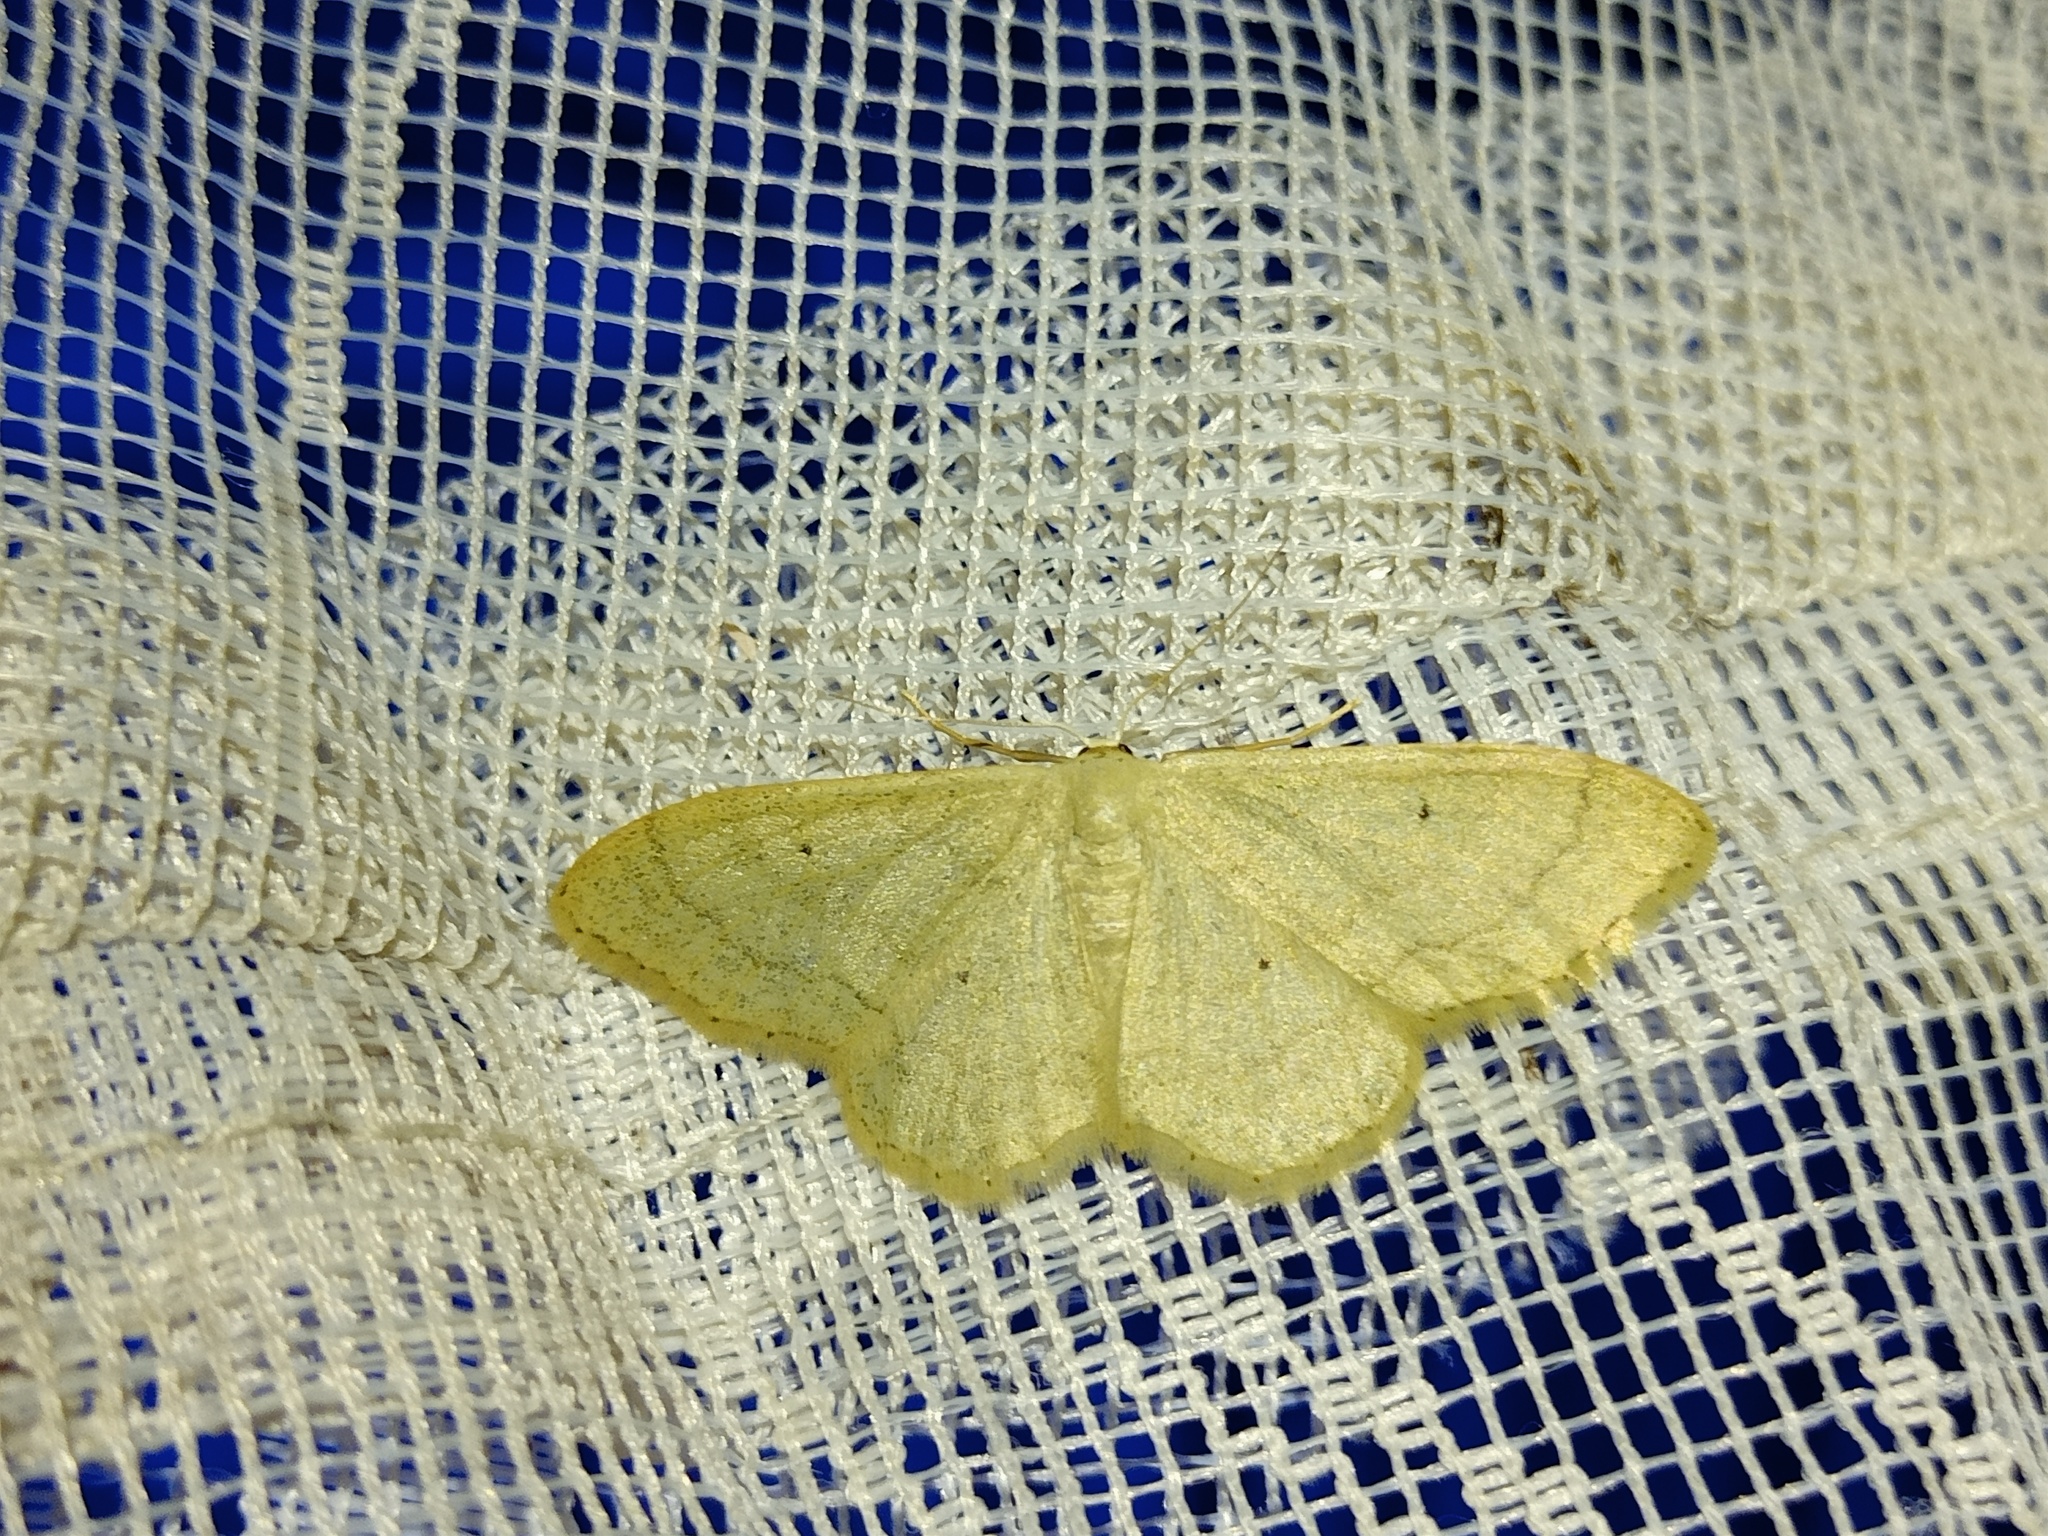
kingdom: Animalia
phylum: Arthropoda
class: Insecta
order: Lepidoptera
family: Geometridae
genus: Idaea
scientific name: Idaea straminata
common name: Plain wave
